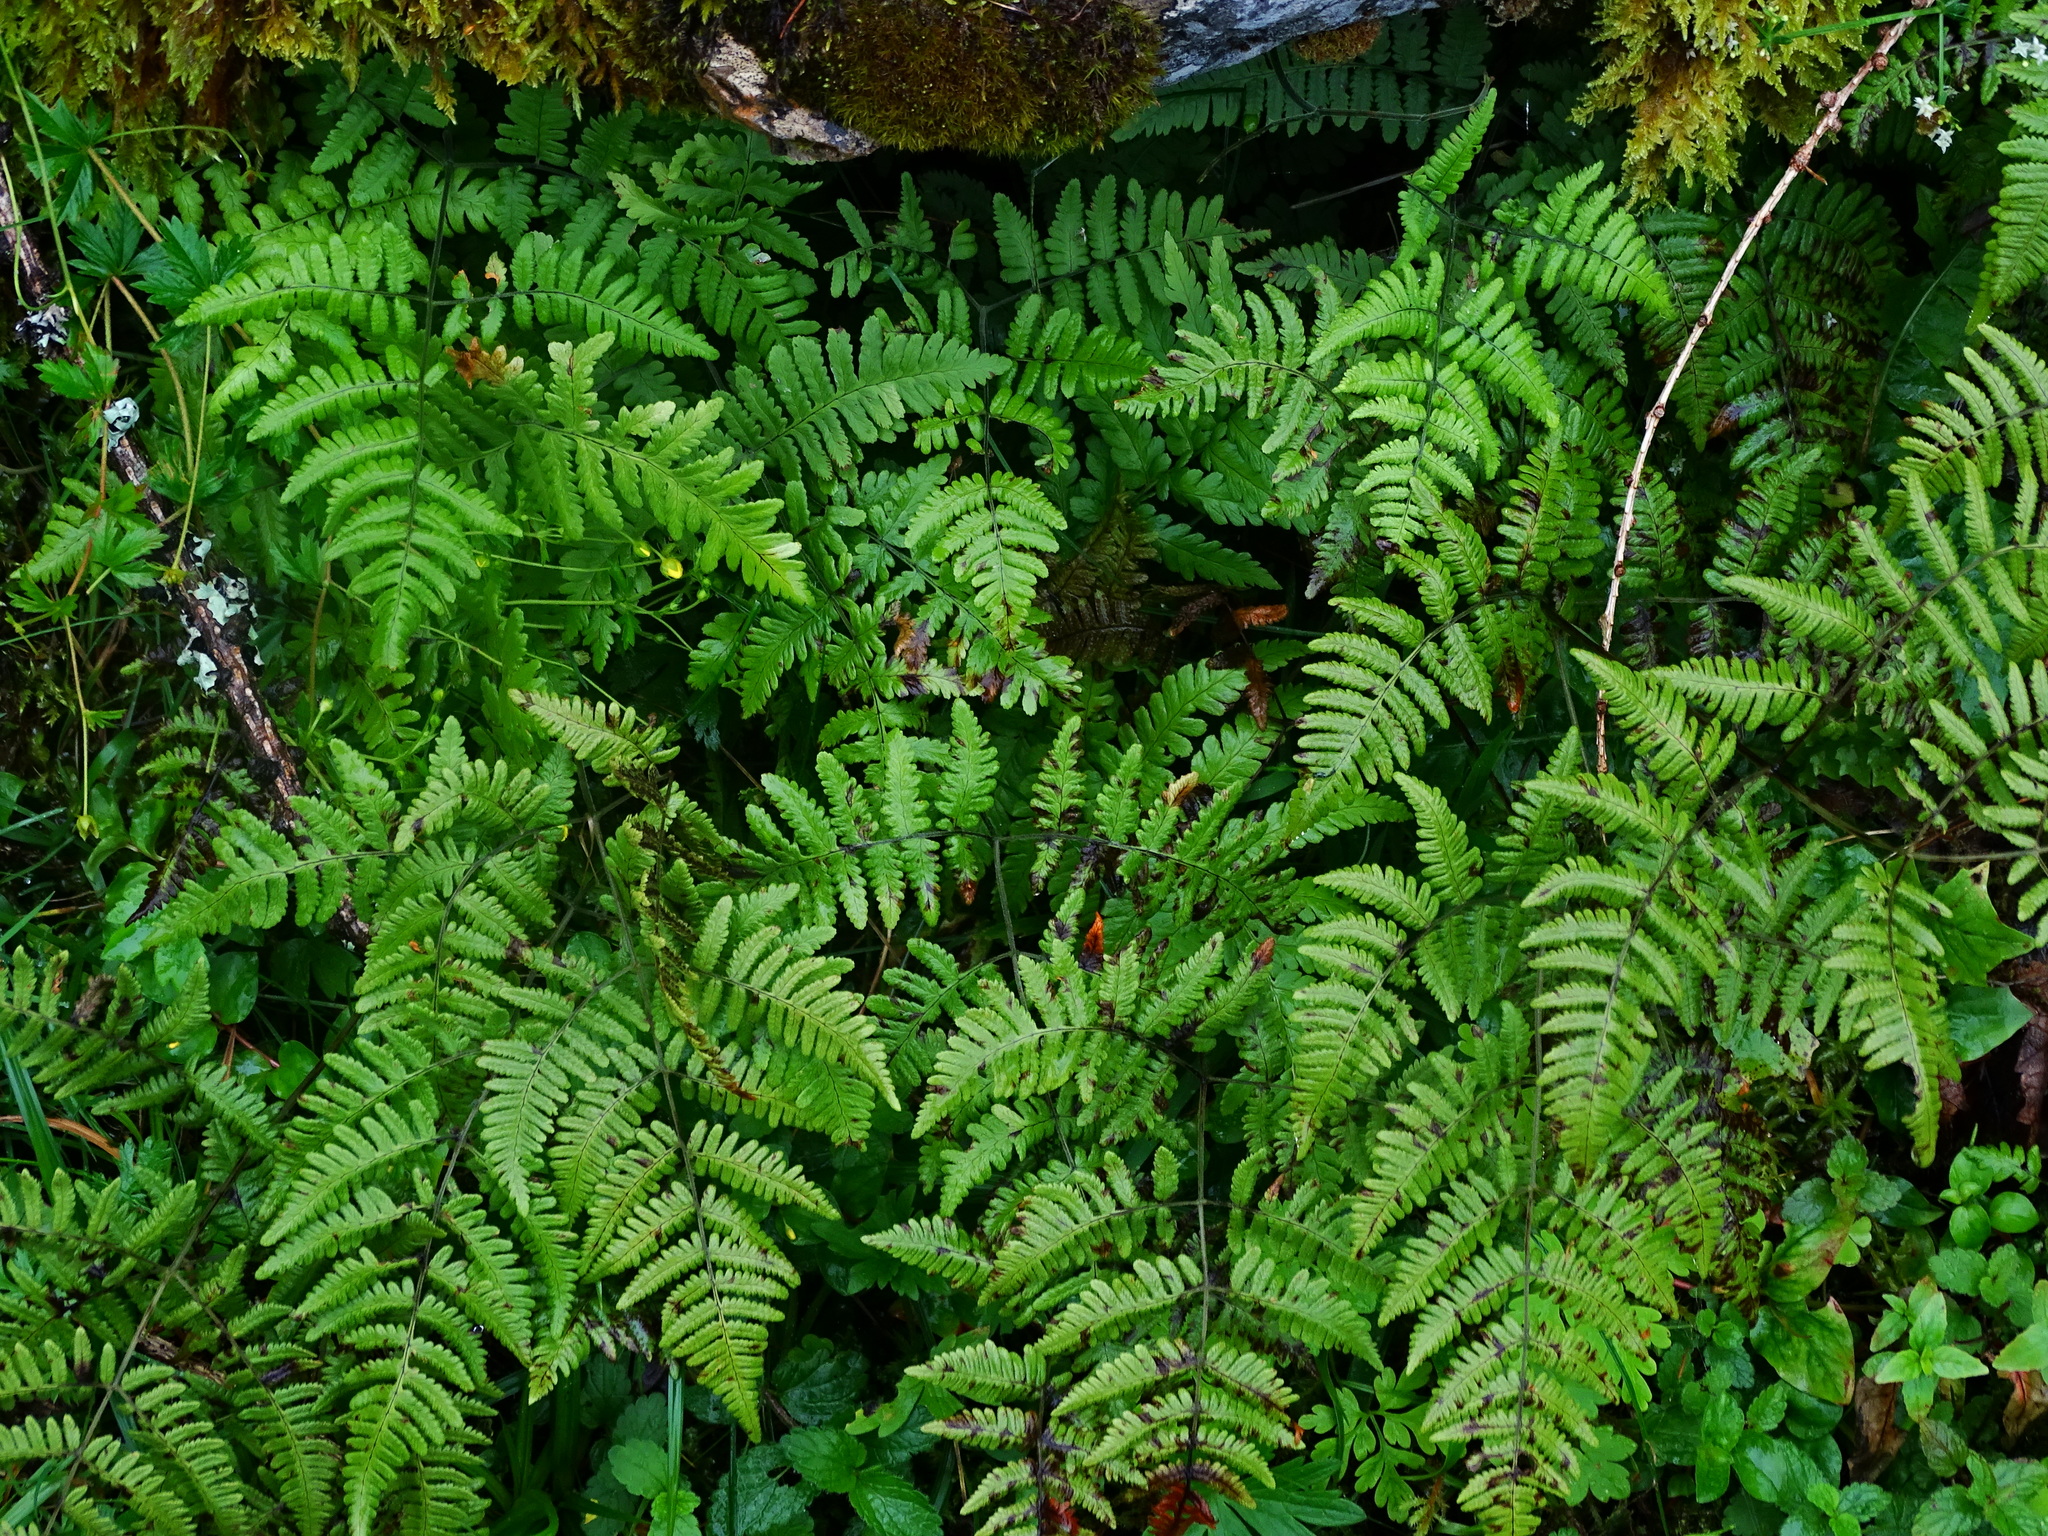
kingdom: Plantae
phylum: Tracheophyta
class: Polypodiopsida
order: Polypodiales
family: Cystopteridaceae
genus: Gymnocarpium
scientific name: Gymnocarpium robertianum
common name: Limestone fern
